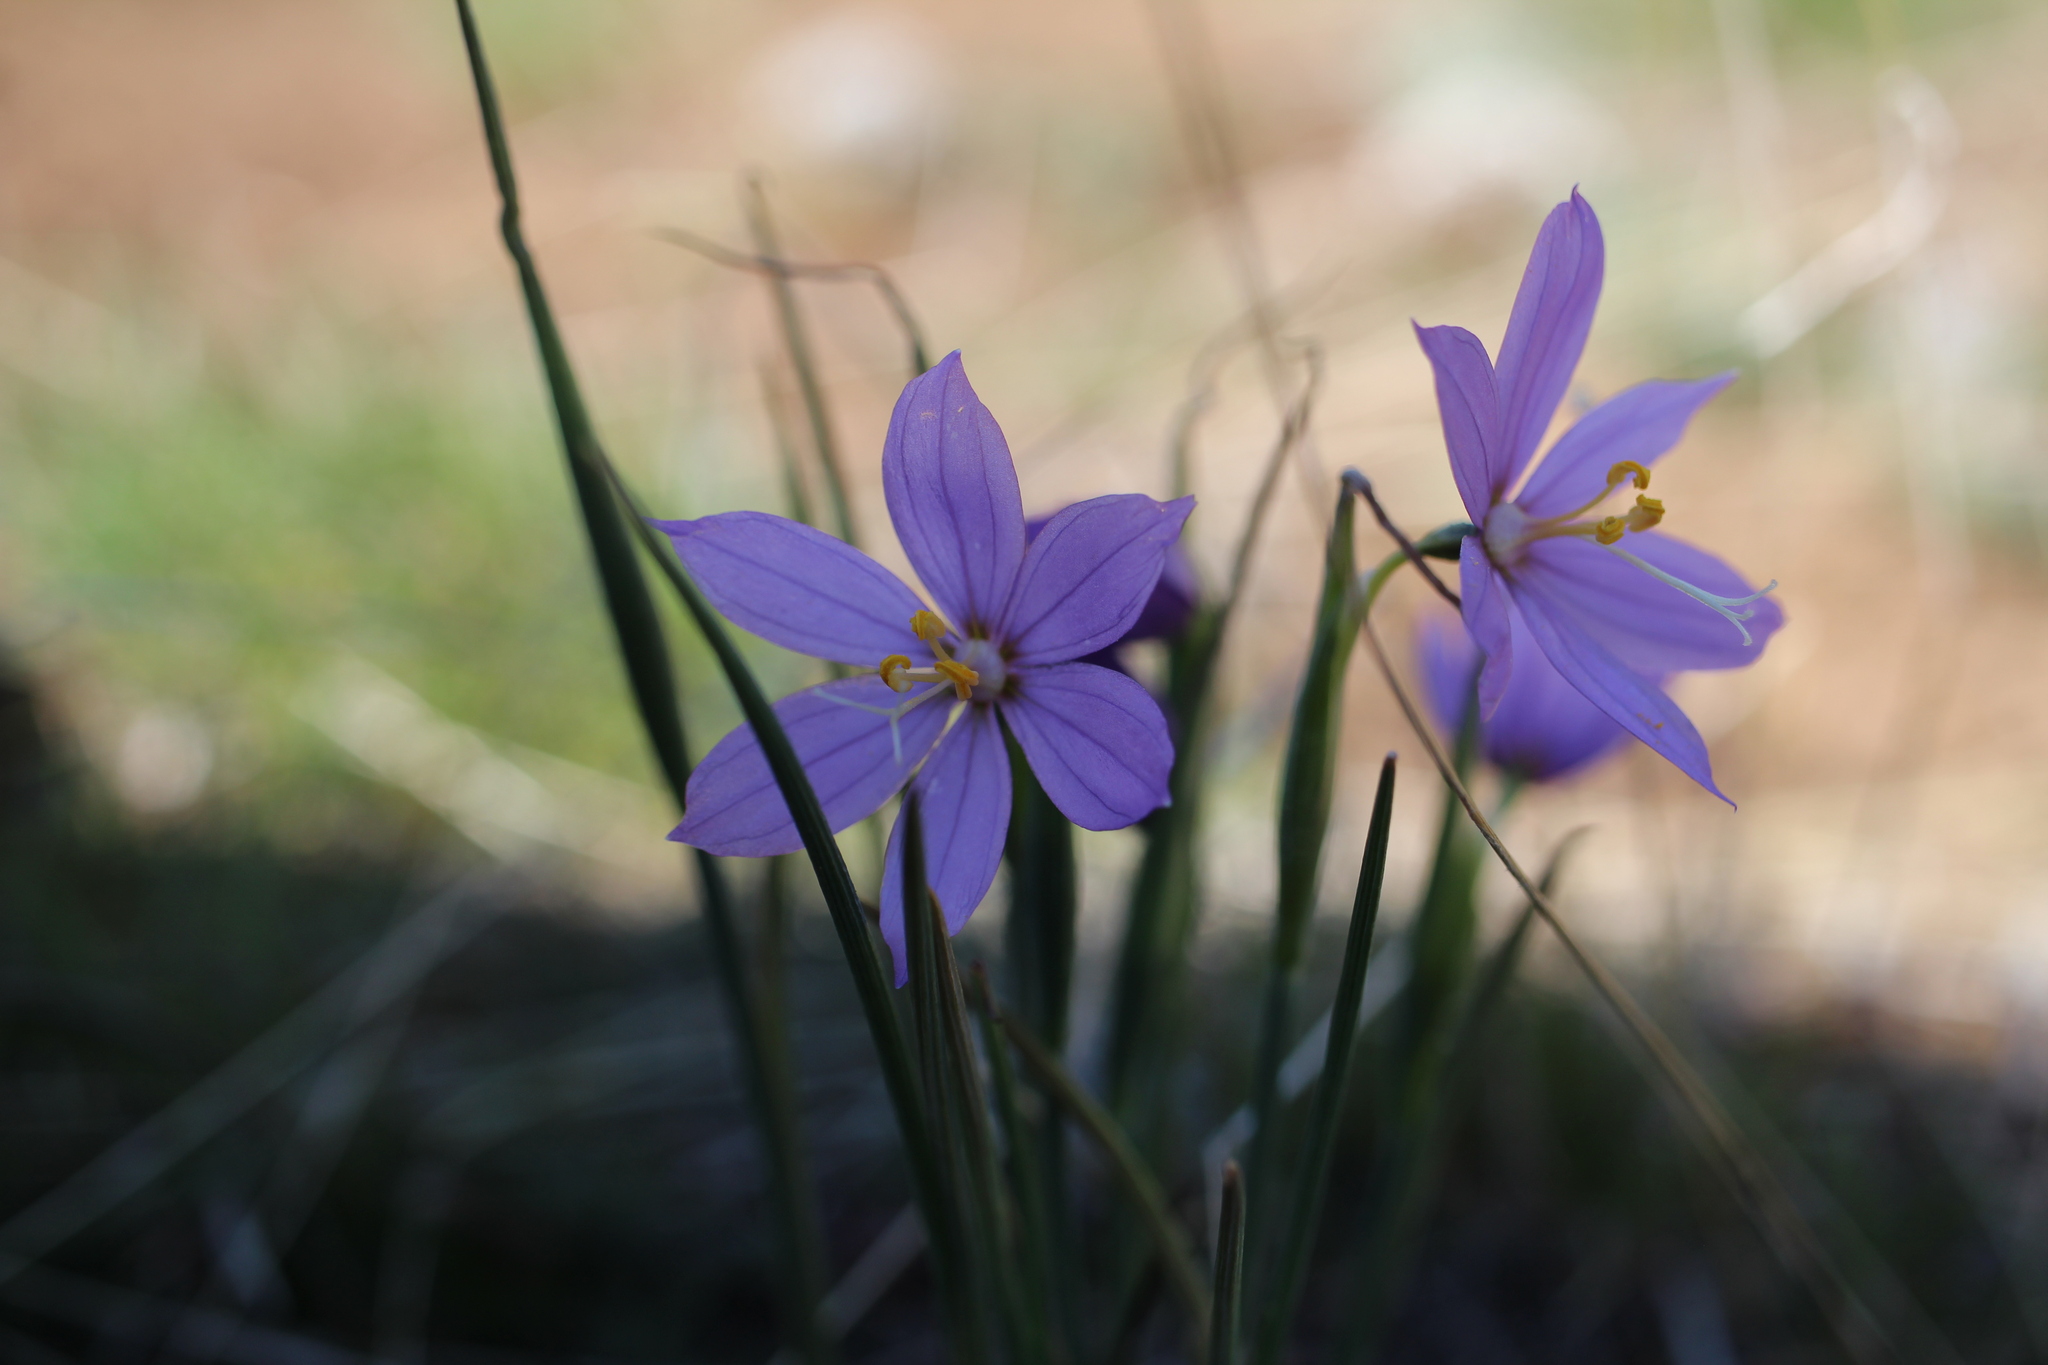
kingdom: Plantae
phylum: Tracheophyta
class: Liliopsida
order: Asparagales
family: Iridaceae
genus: Olsynium
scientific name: Olsynium douglasii
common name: Douglas' grasswidow
